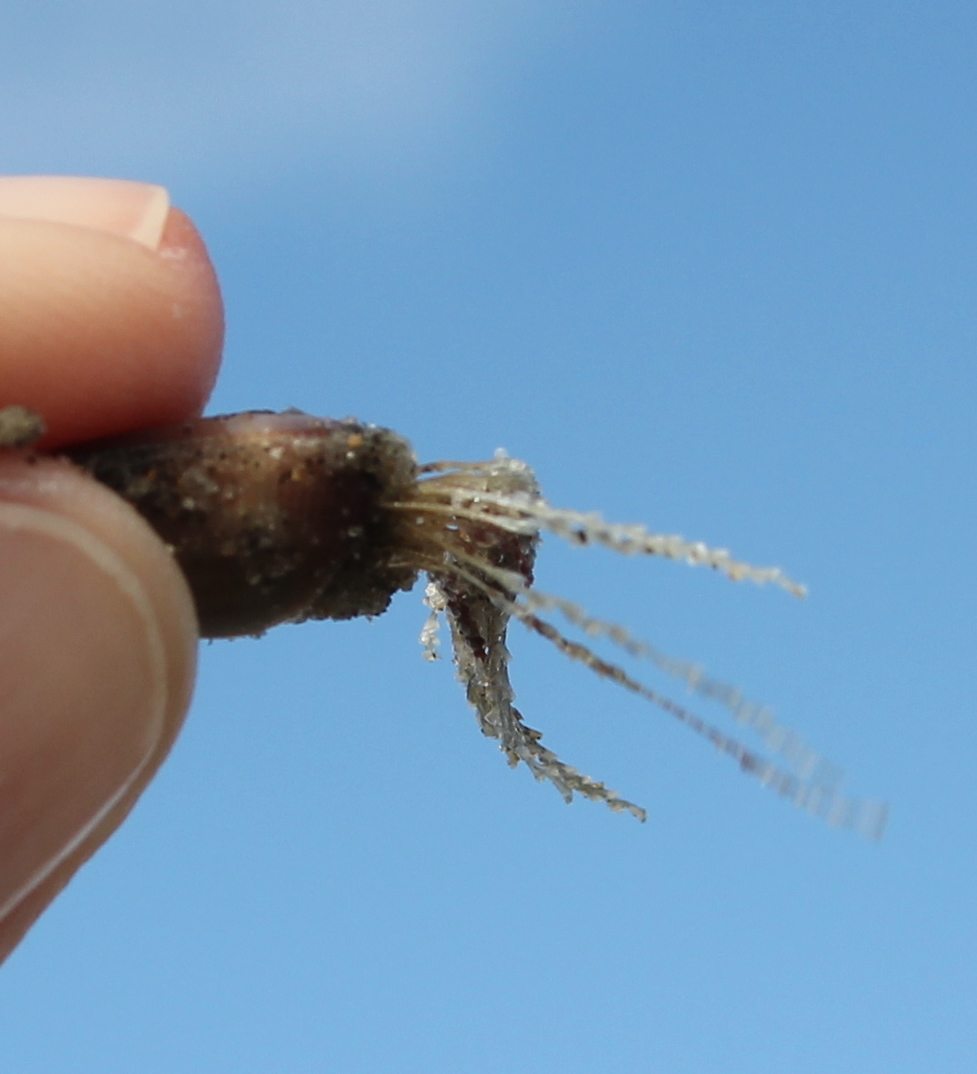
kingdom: Animalia
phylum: Cnidaria
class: Hydrozoa
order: Leptothecata
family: Lovenellidae
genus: Eucheilota
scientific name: Eucheilota bakeri
